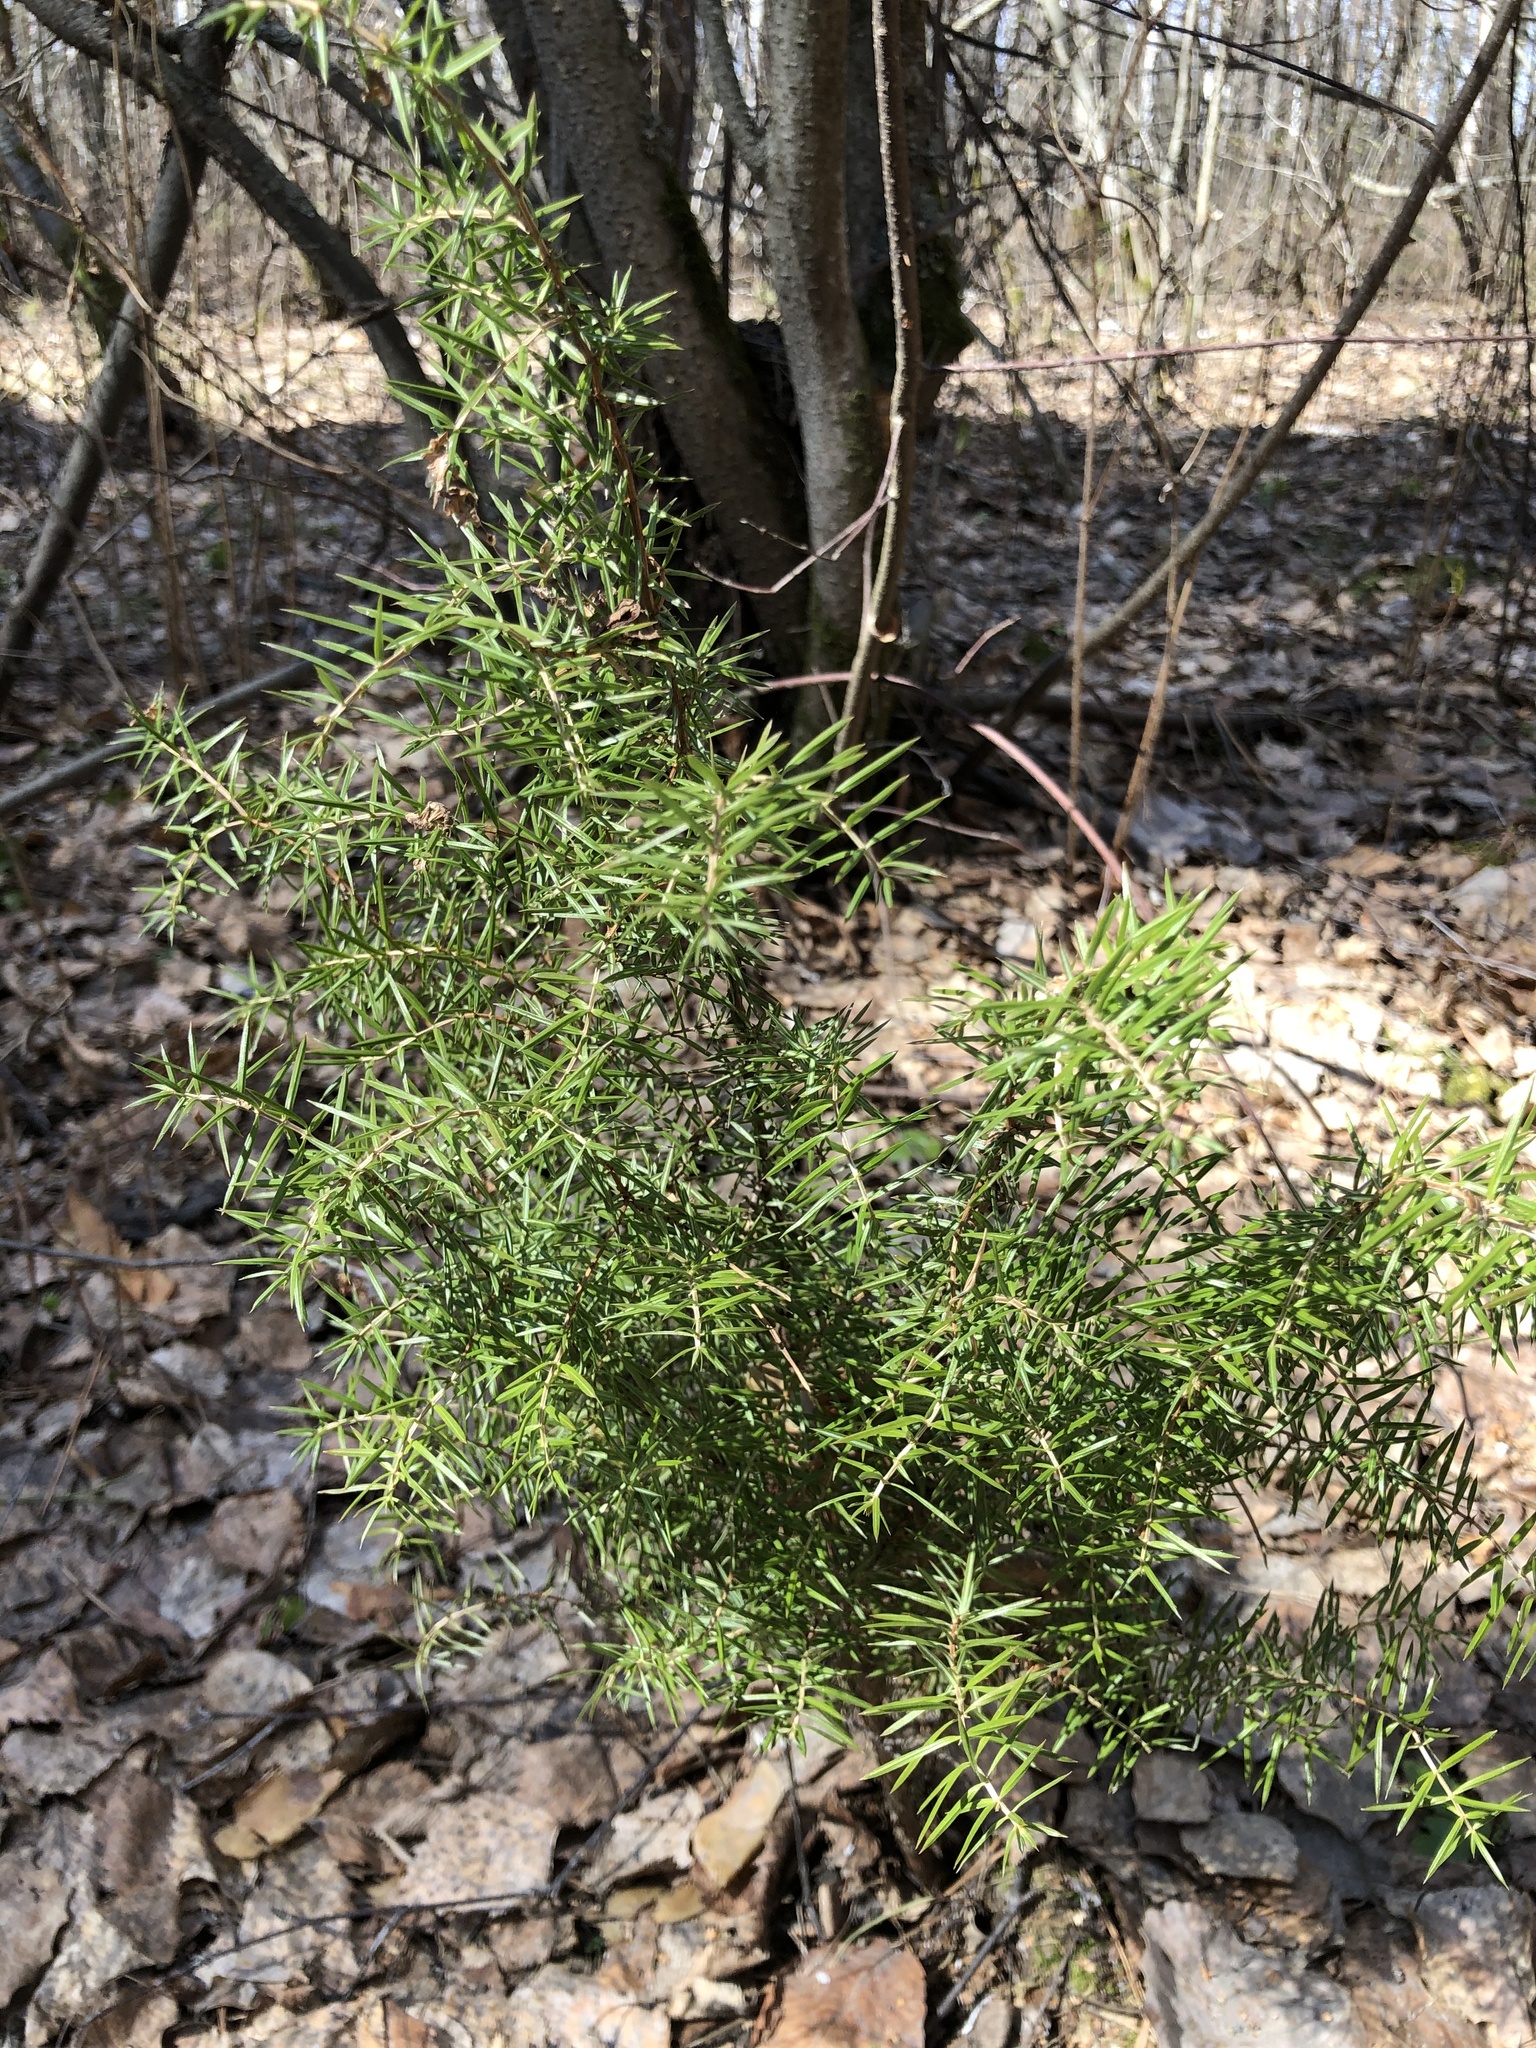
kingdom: Plantae
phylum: Tracheophyta
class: Pinopsida
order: Pinales
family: Cupressaceae
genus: Juniperus
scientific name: Juniperus communis
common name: Common juniper
